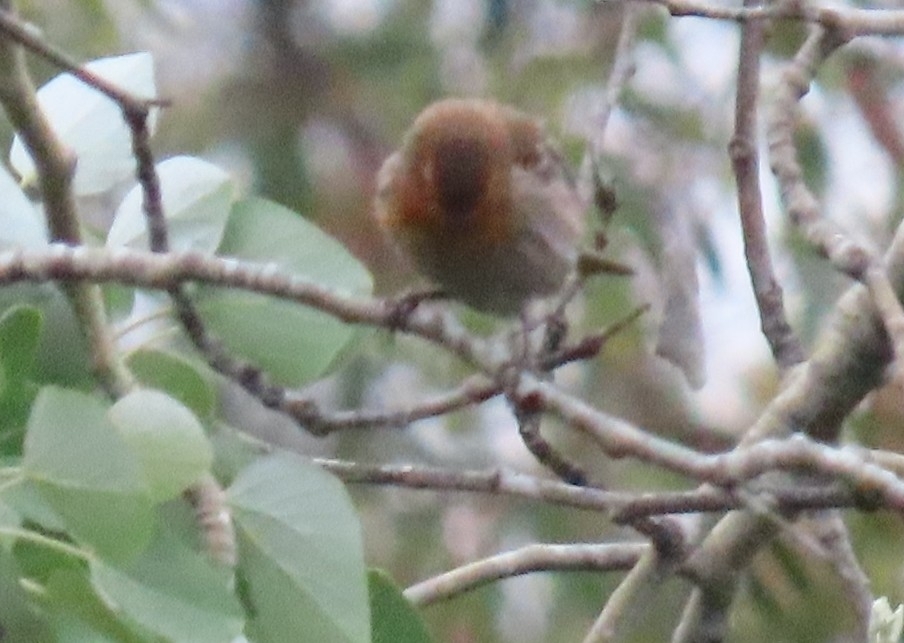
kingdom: Animalia
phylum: Chordata
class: Aves
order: Passeriformes
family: Fringillidae
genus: Haemorhous
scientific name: Haemorhous mexicanus
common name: House finch
